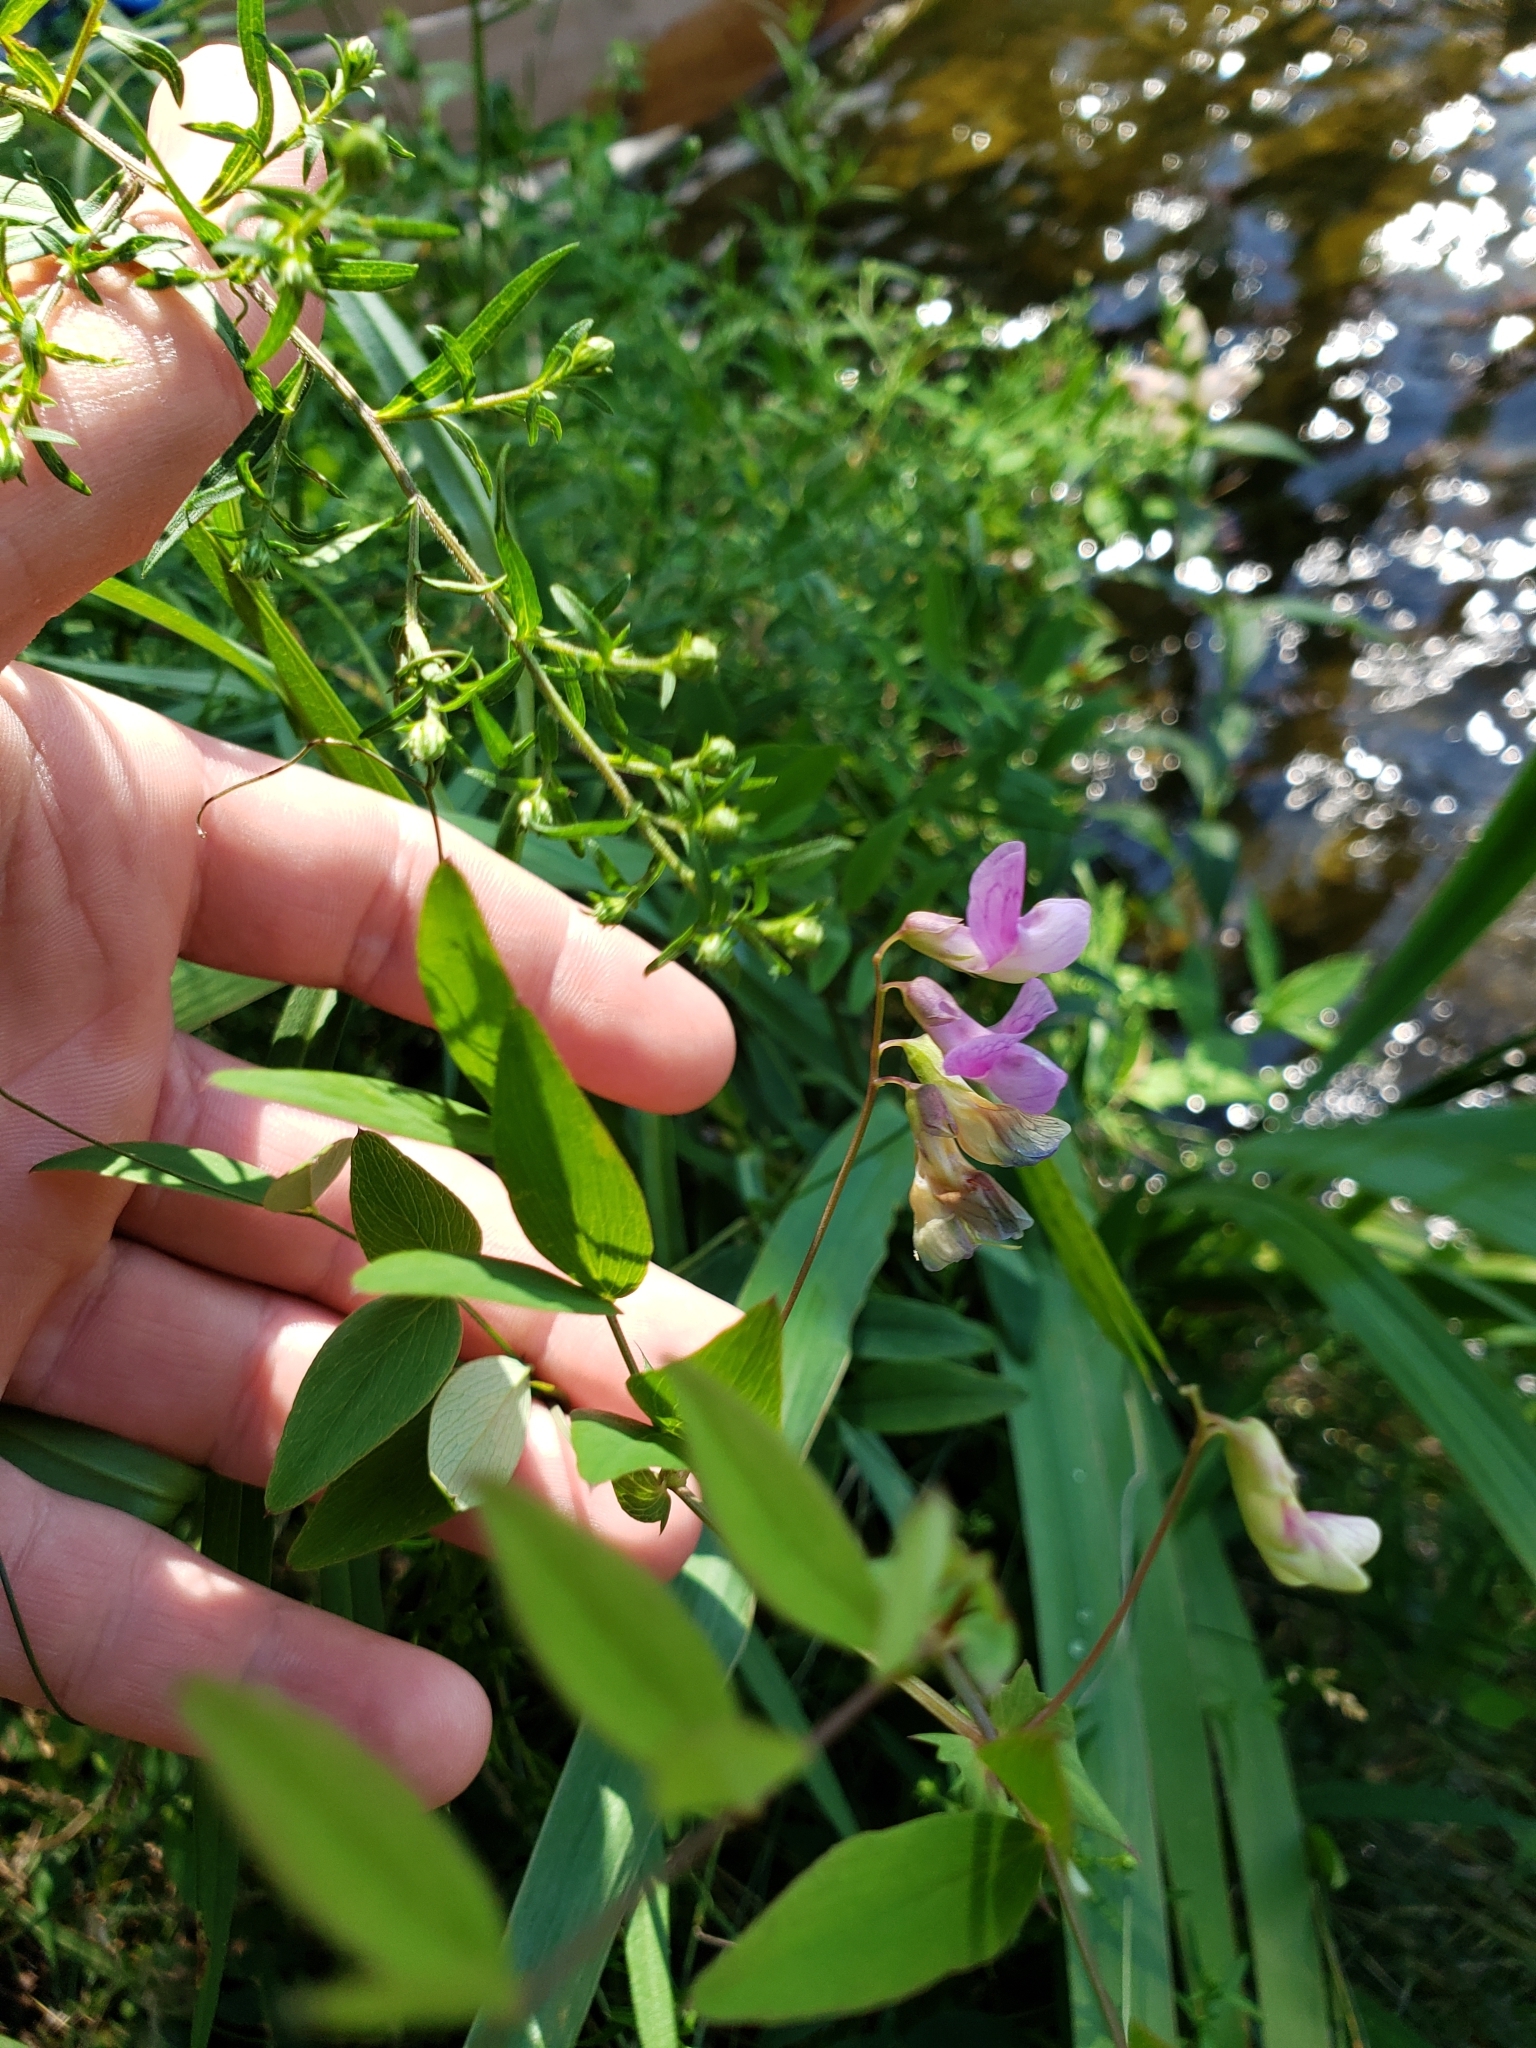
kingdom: Plantae
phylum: Tracheophyta
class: Magnoliopsida
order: Fabales
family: Fabaceae
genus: Lathyrus
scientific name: Lathyrus palustris
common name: Marsh pea
